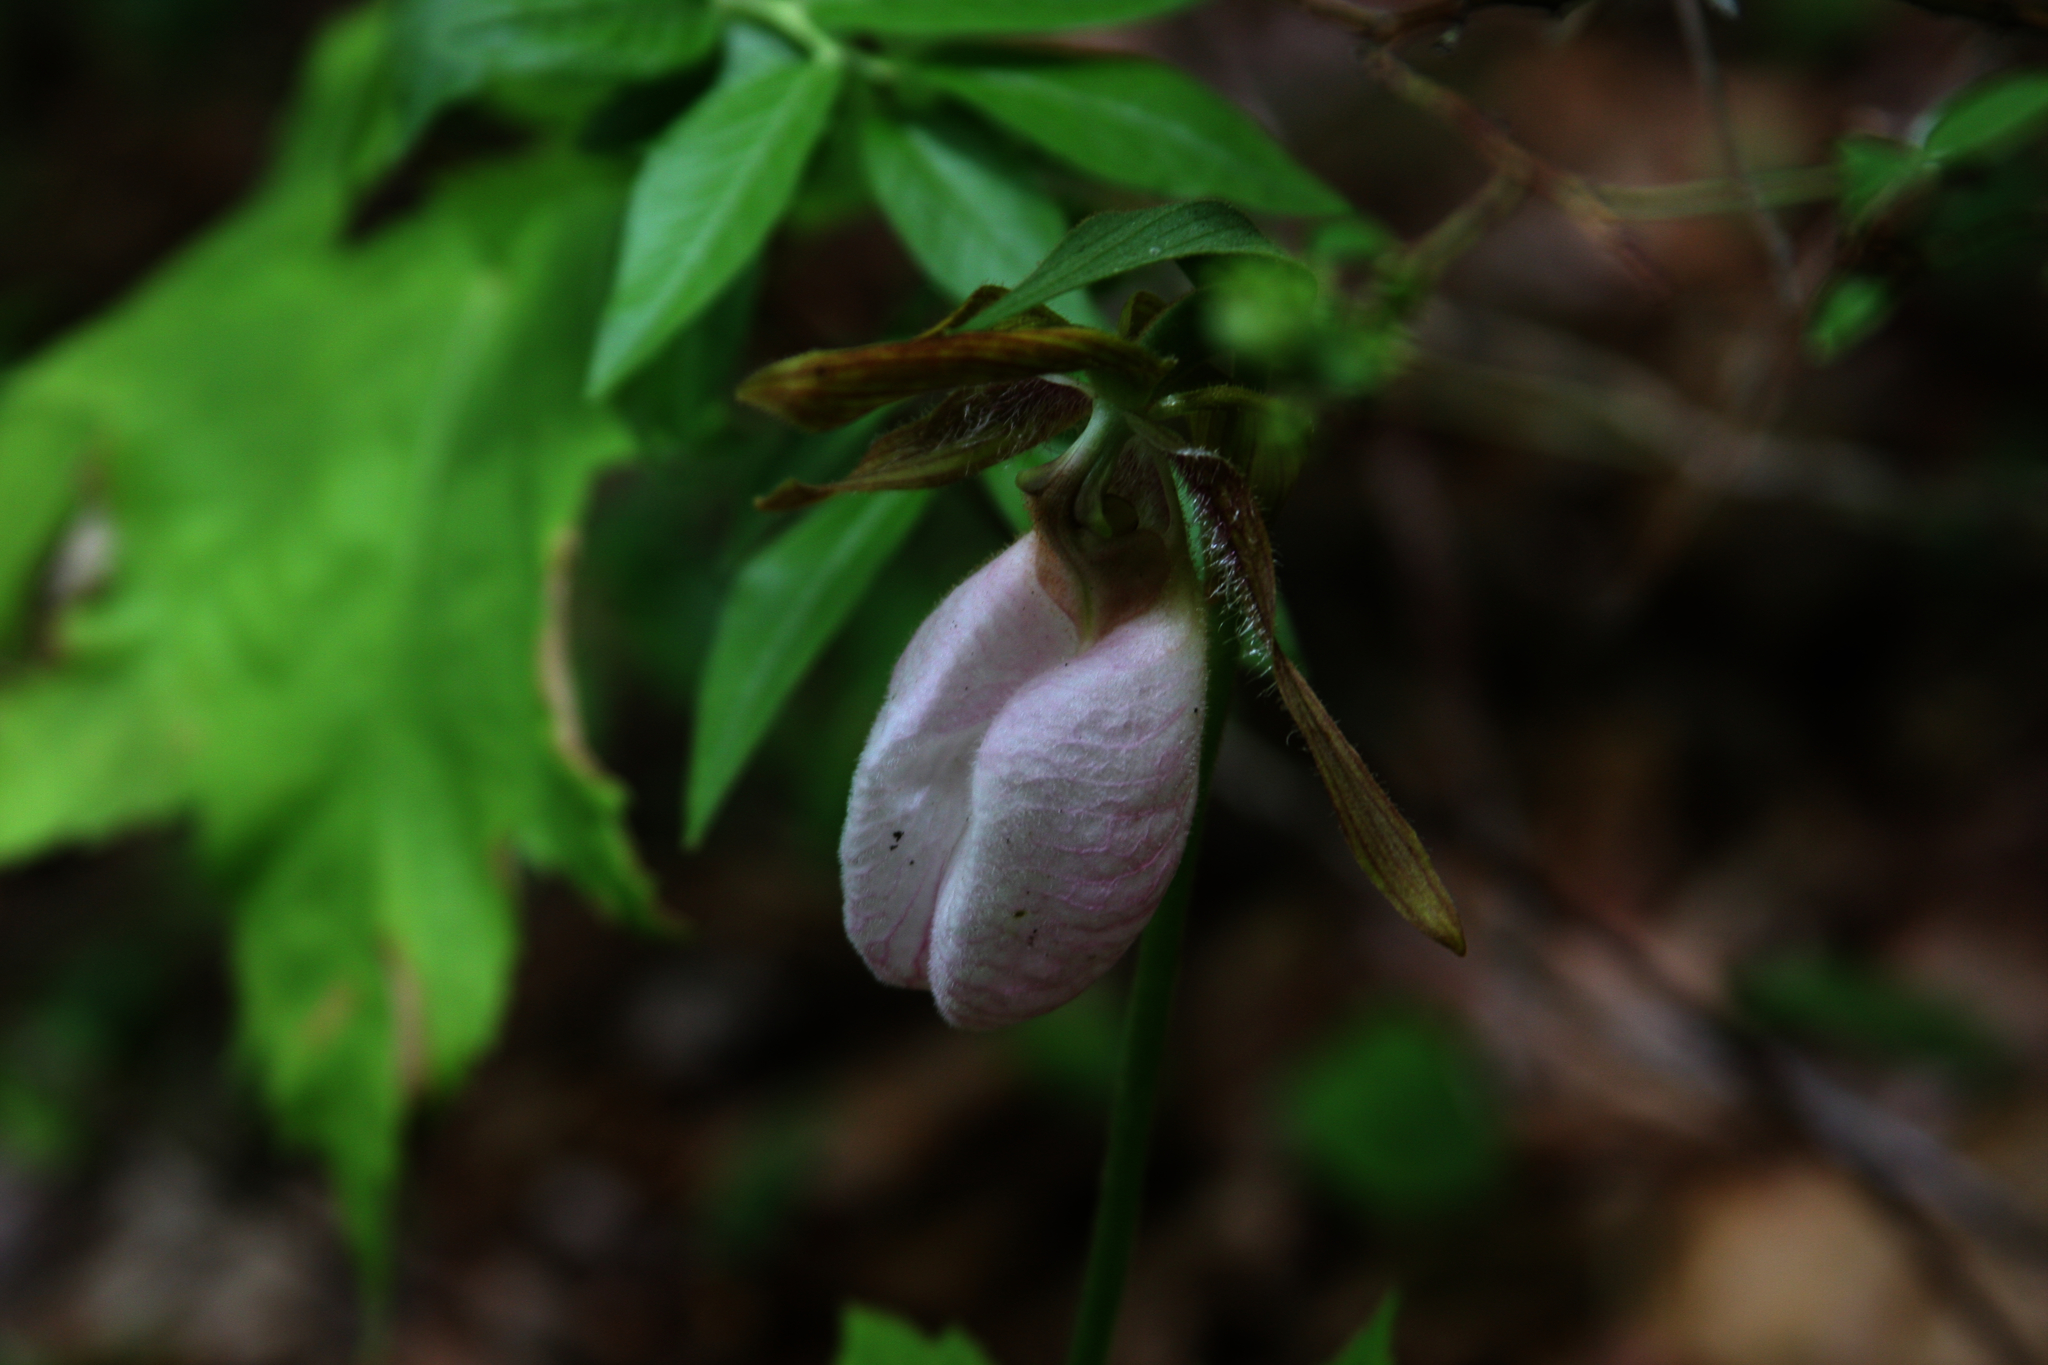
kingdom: Plantae
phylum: Tracheophyta
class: Liliopsida
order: Asparagales
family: Orchidaceae
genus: Cypripedium
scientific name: Cypripedium acaule
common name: Pink lady's-slipper
